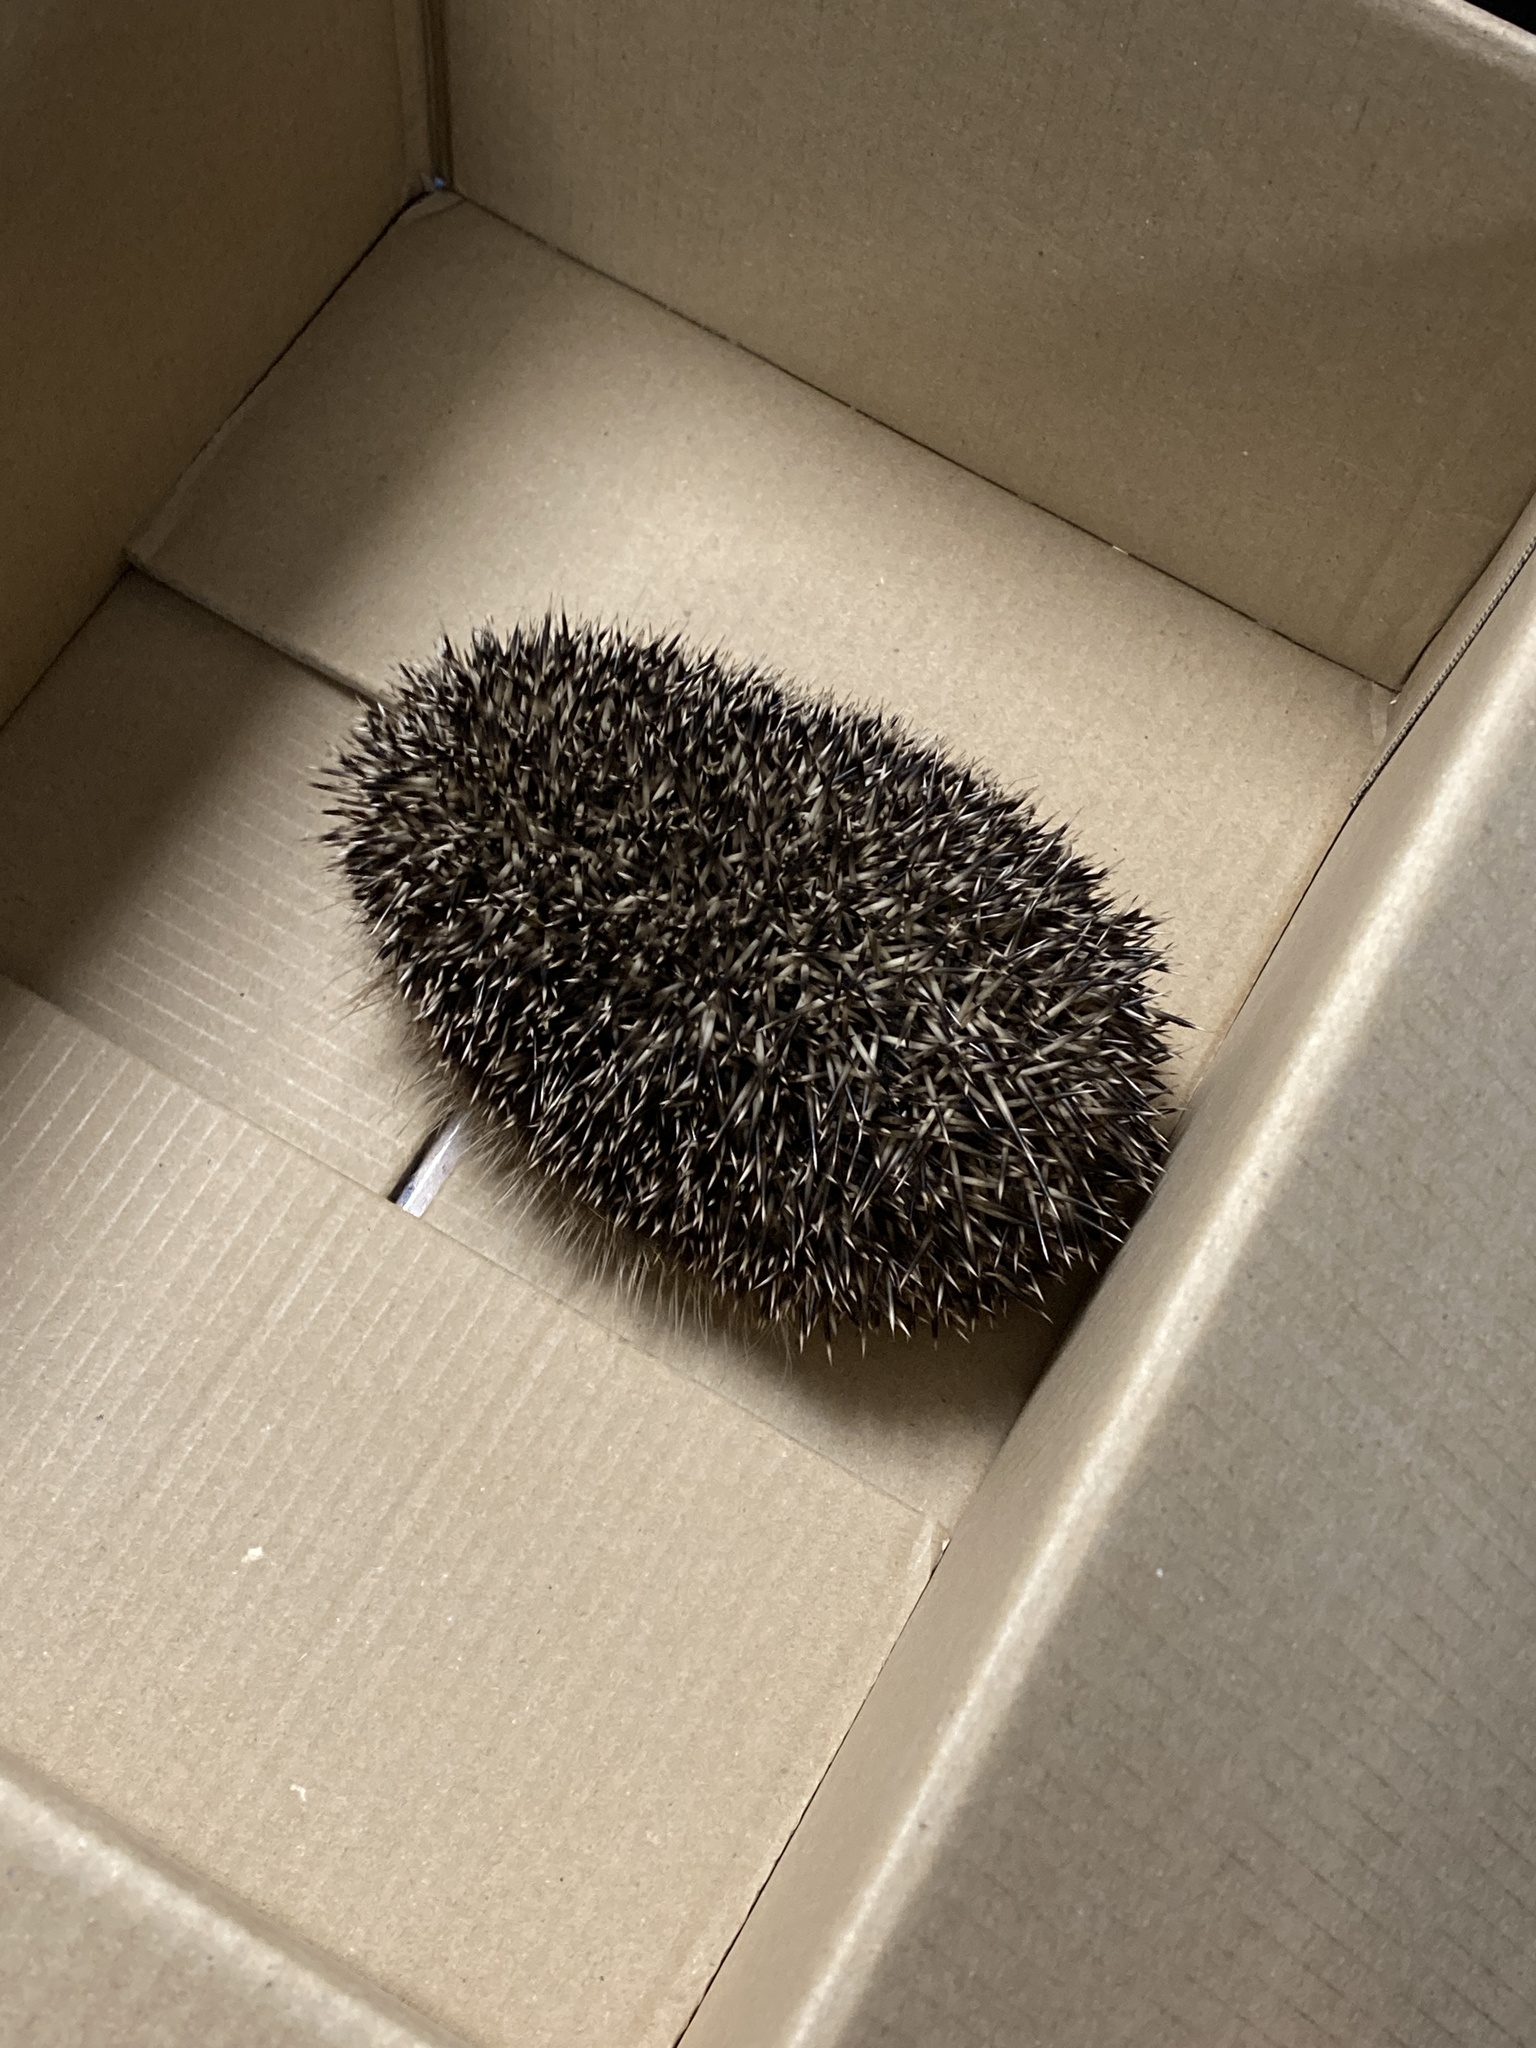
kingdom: Animalia
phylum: Chordata
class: Mammalia
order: Erinaceomorpha
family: Erinaceidae
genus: Erinaceus
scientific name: Erinaceus europaeus
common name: West european hedgehog
